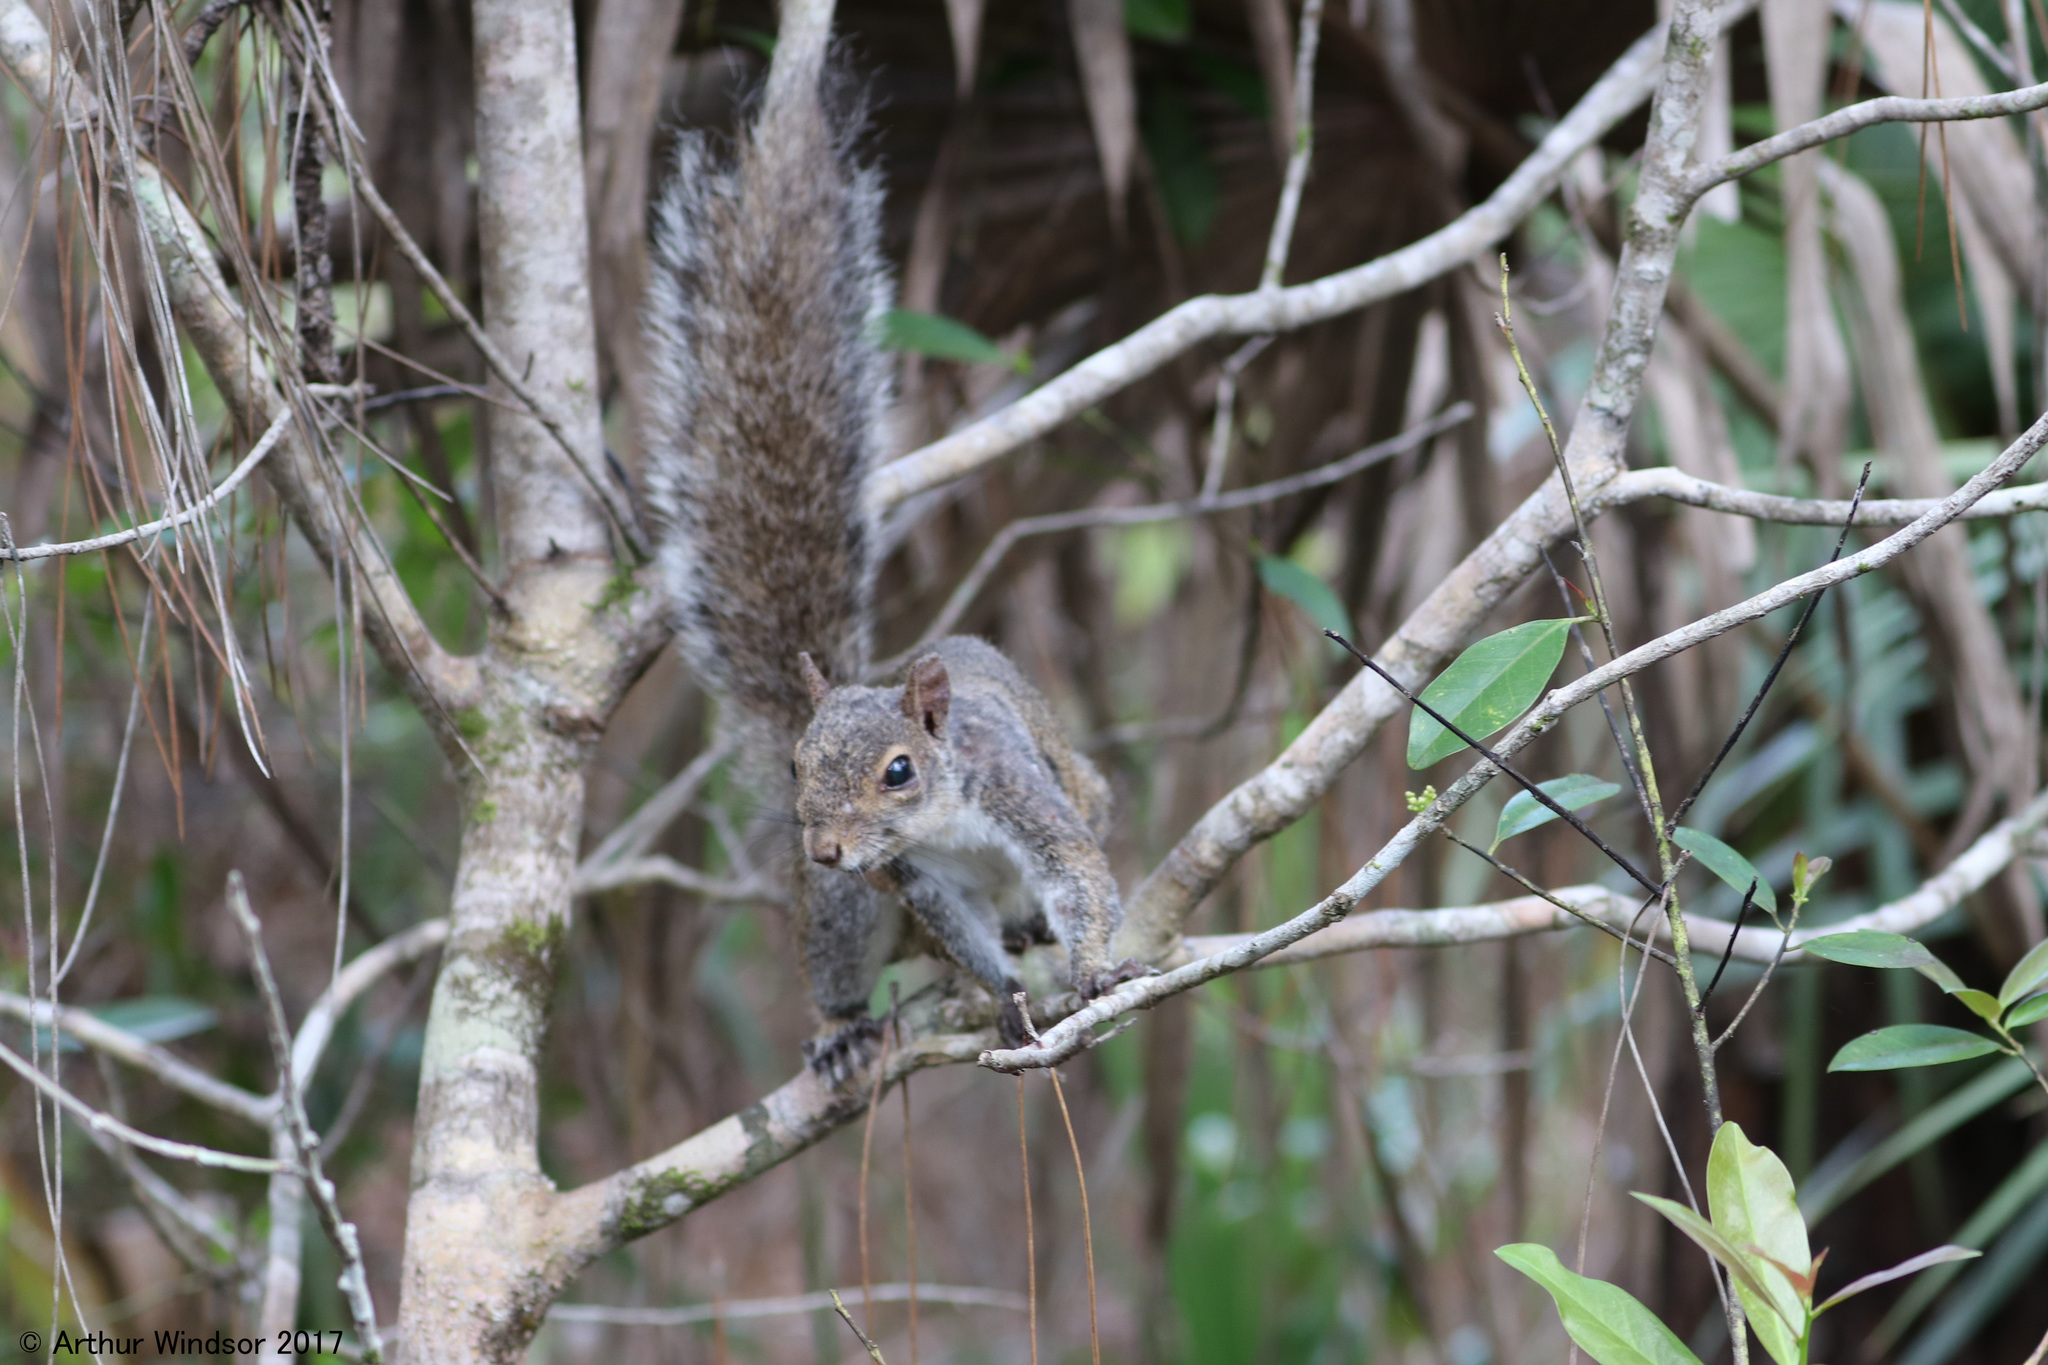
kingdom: Animalia
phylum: Chordata
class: Mammalia
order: Rodentia
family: Sciuridae
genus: Sciurus
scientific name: Sciurus carolinensis
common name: Eastern gray squirrel
